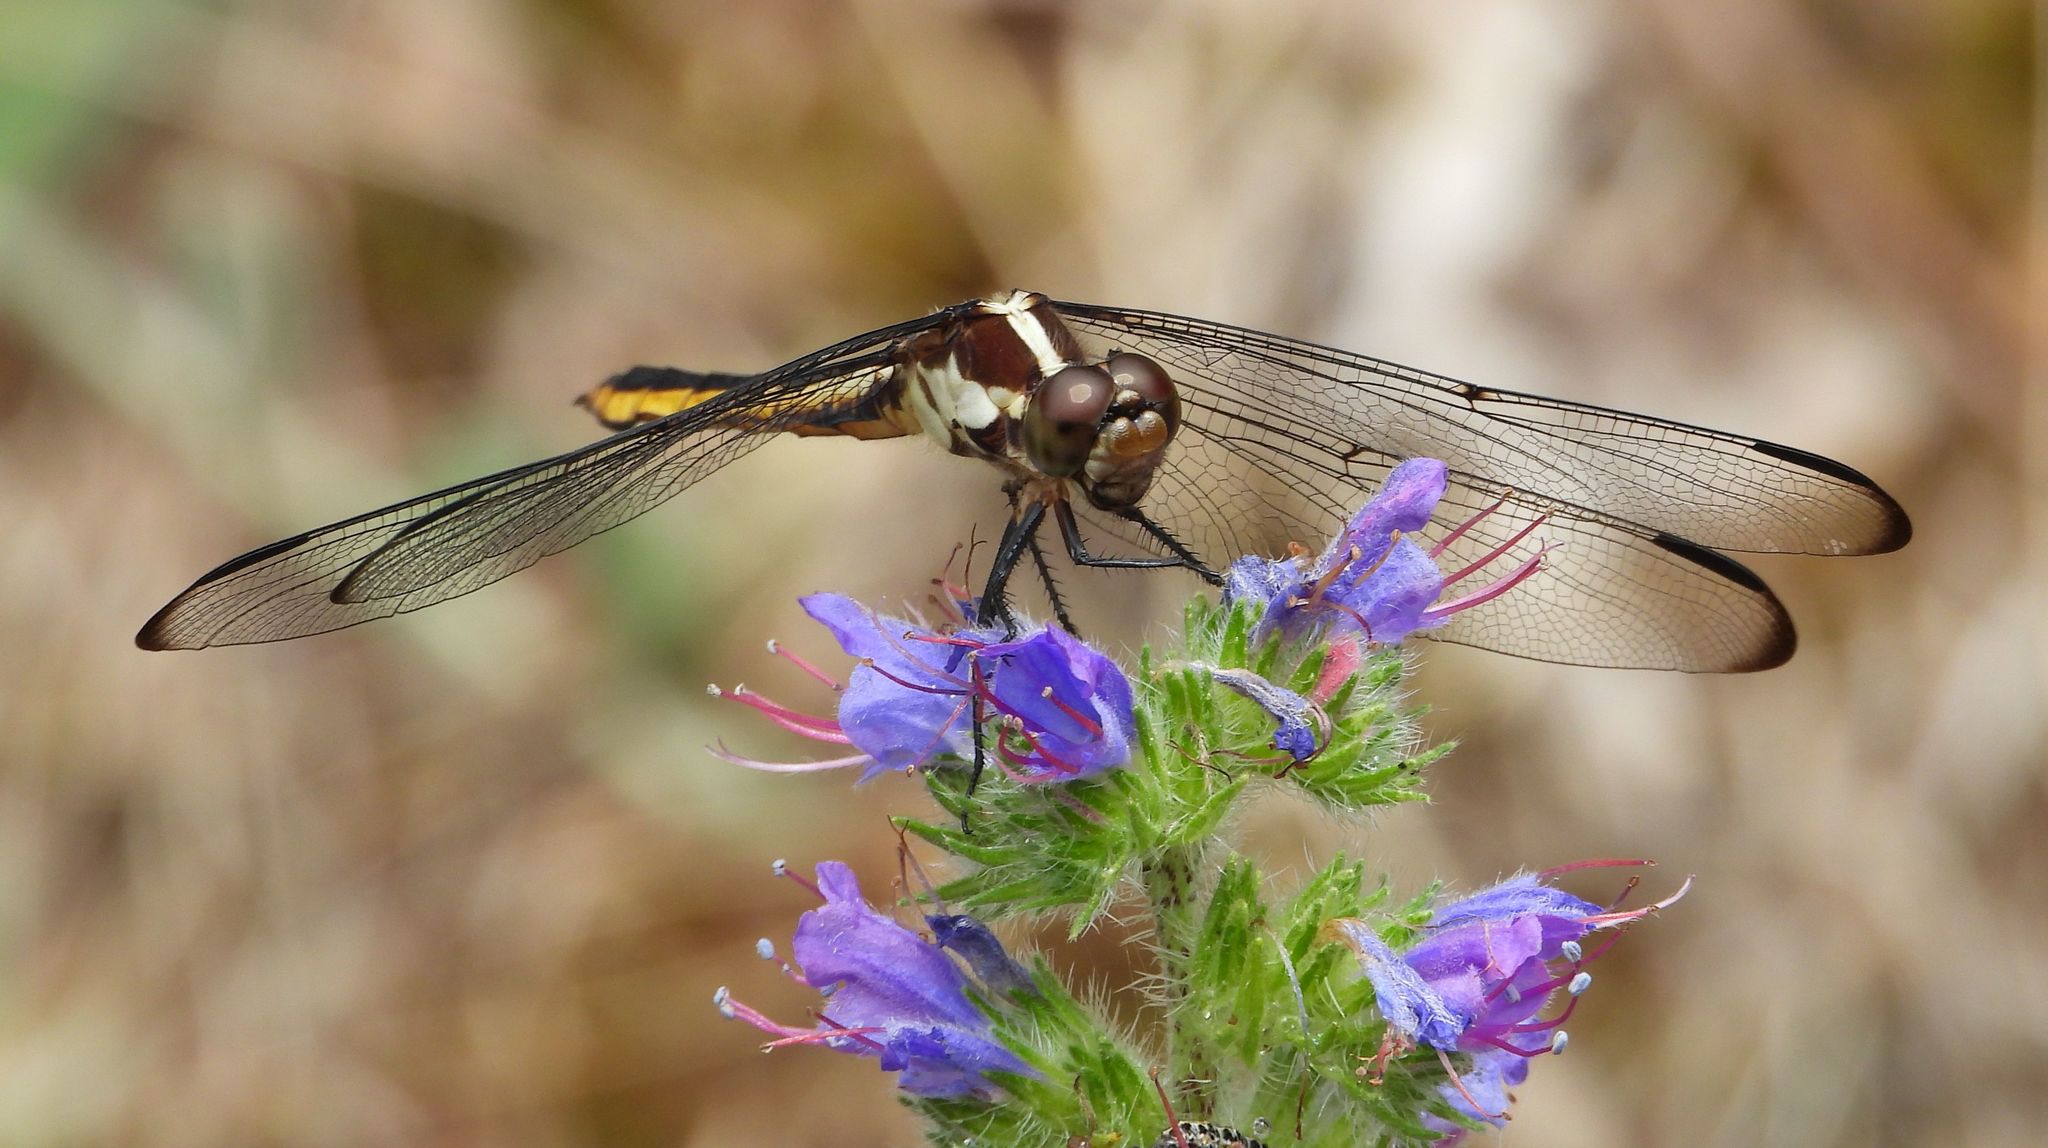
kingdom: Animalia
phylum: Arthropoda
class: Insecta
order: Odonata
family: Libellulidae
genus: Libellula
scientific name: Libellula incesta
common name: Slaty skimmer
